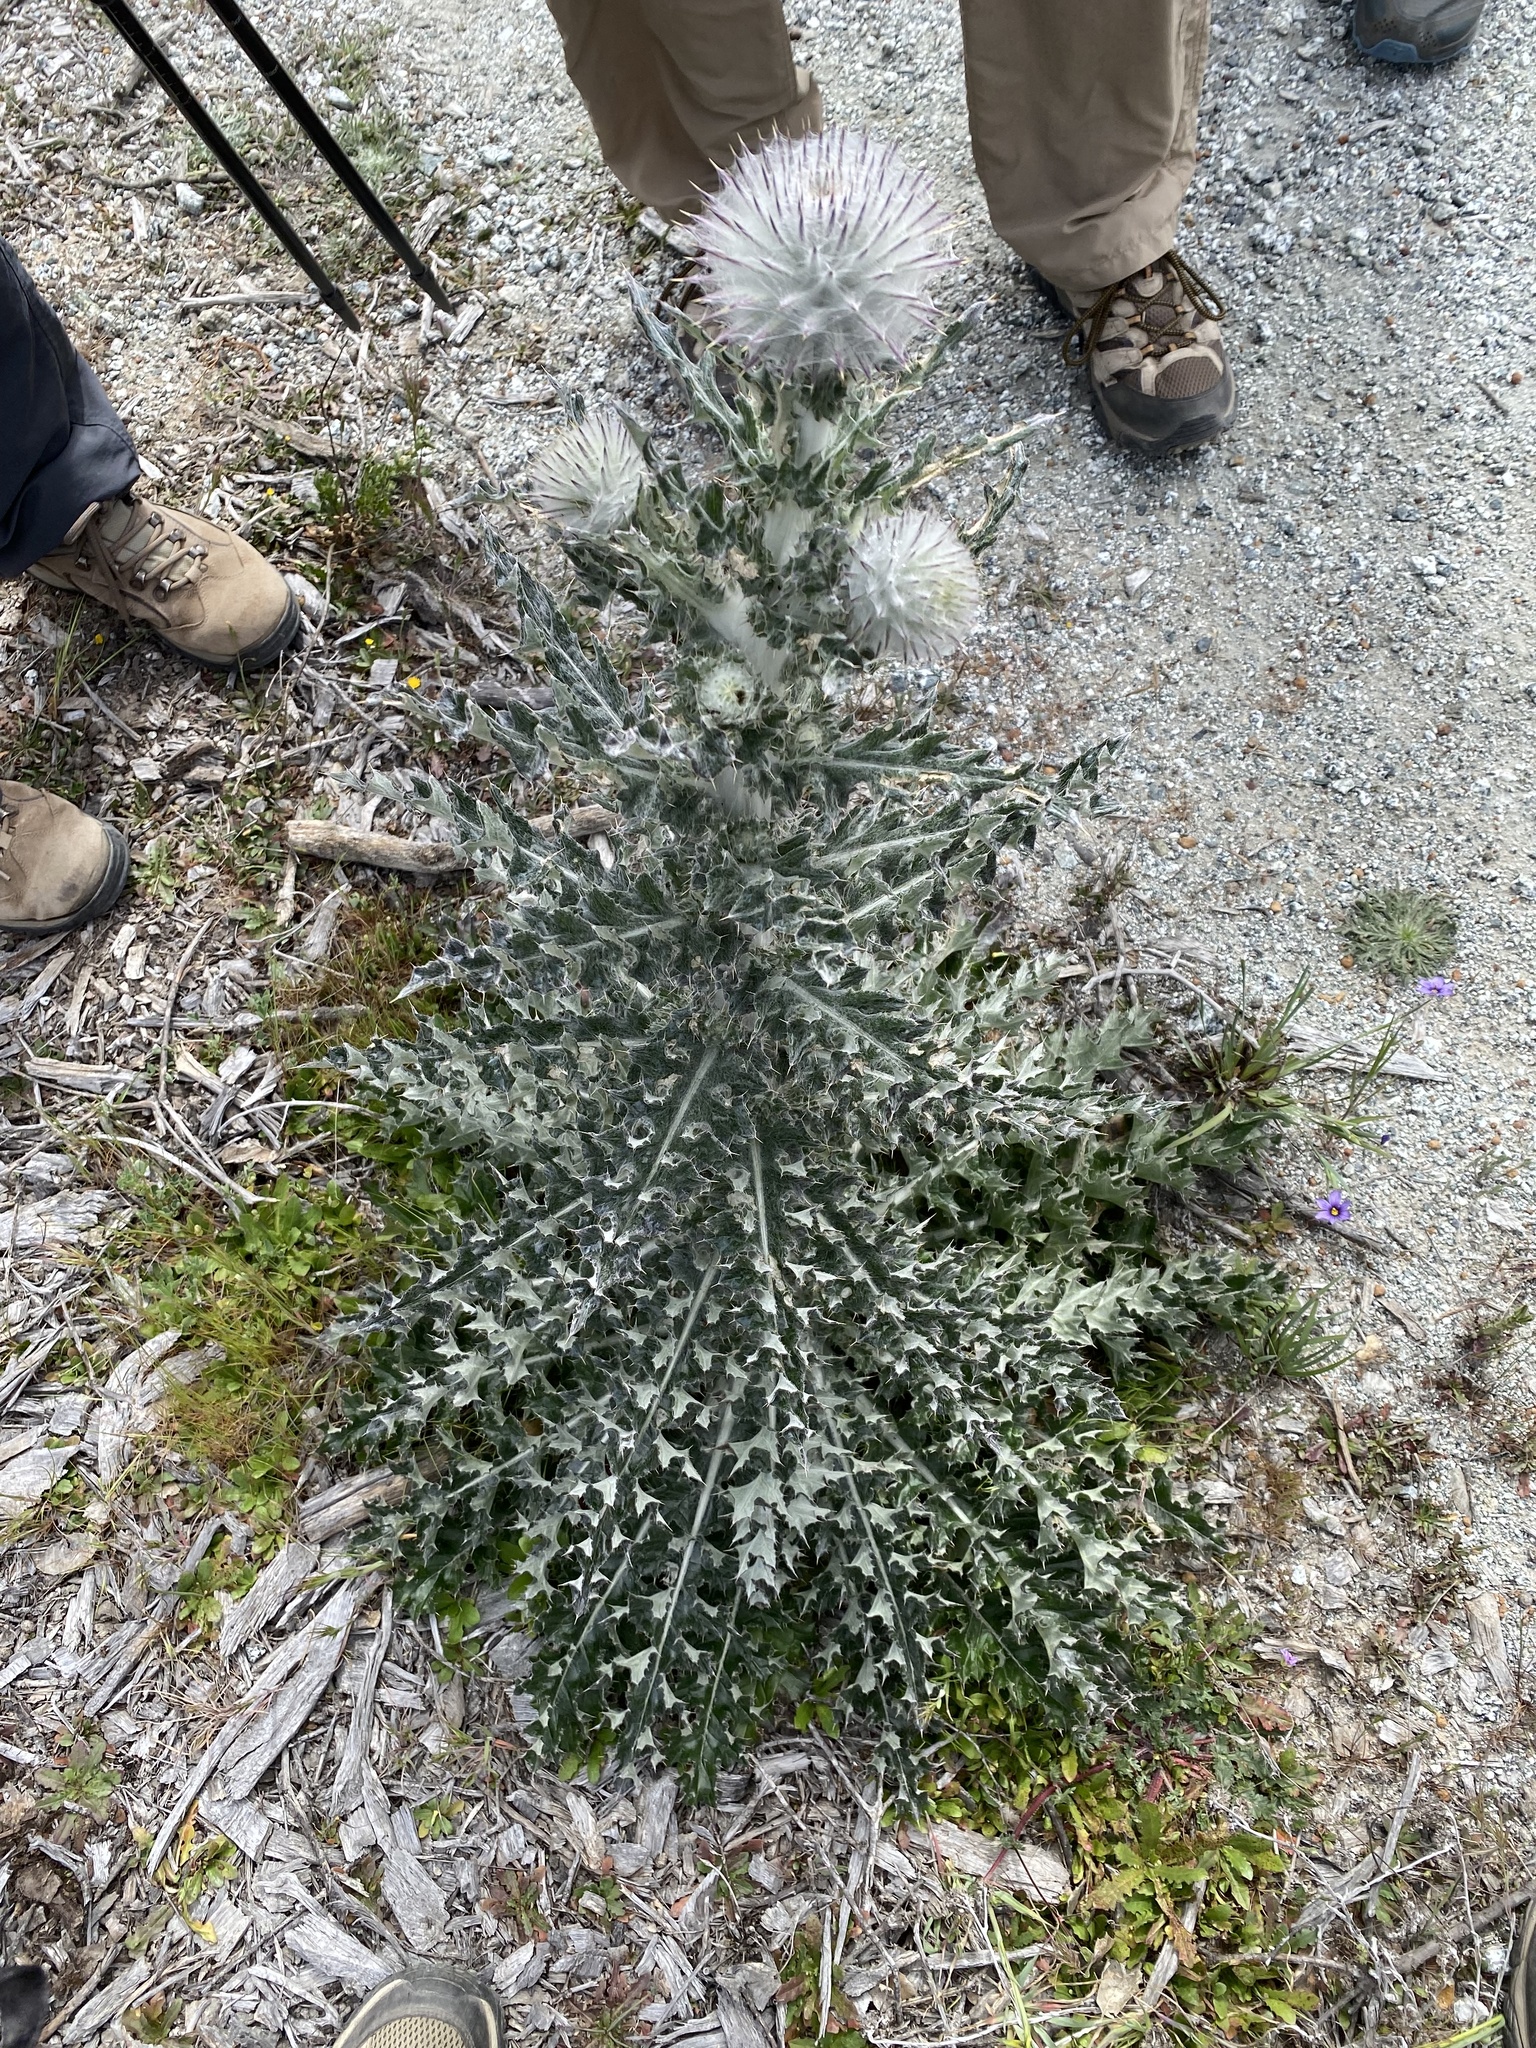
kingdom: Plantae
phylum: Tracheophyta
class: Magnoliopsida
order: Asterales
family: Asteraceae
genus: Cirsium
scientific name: Cirsium occidentale
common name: Western thistle
